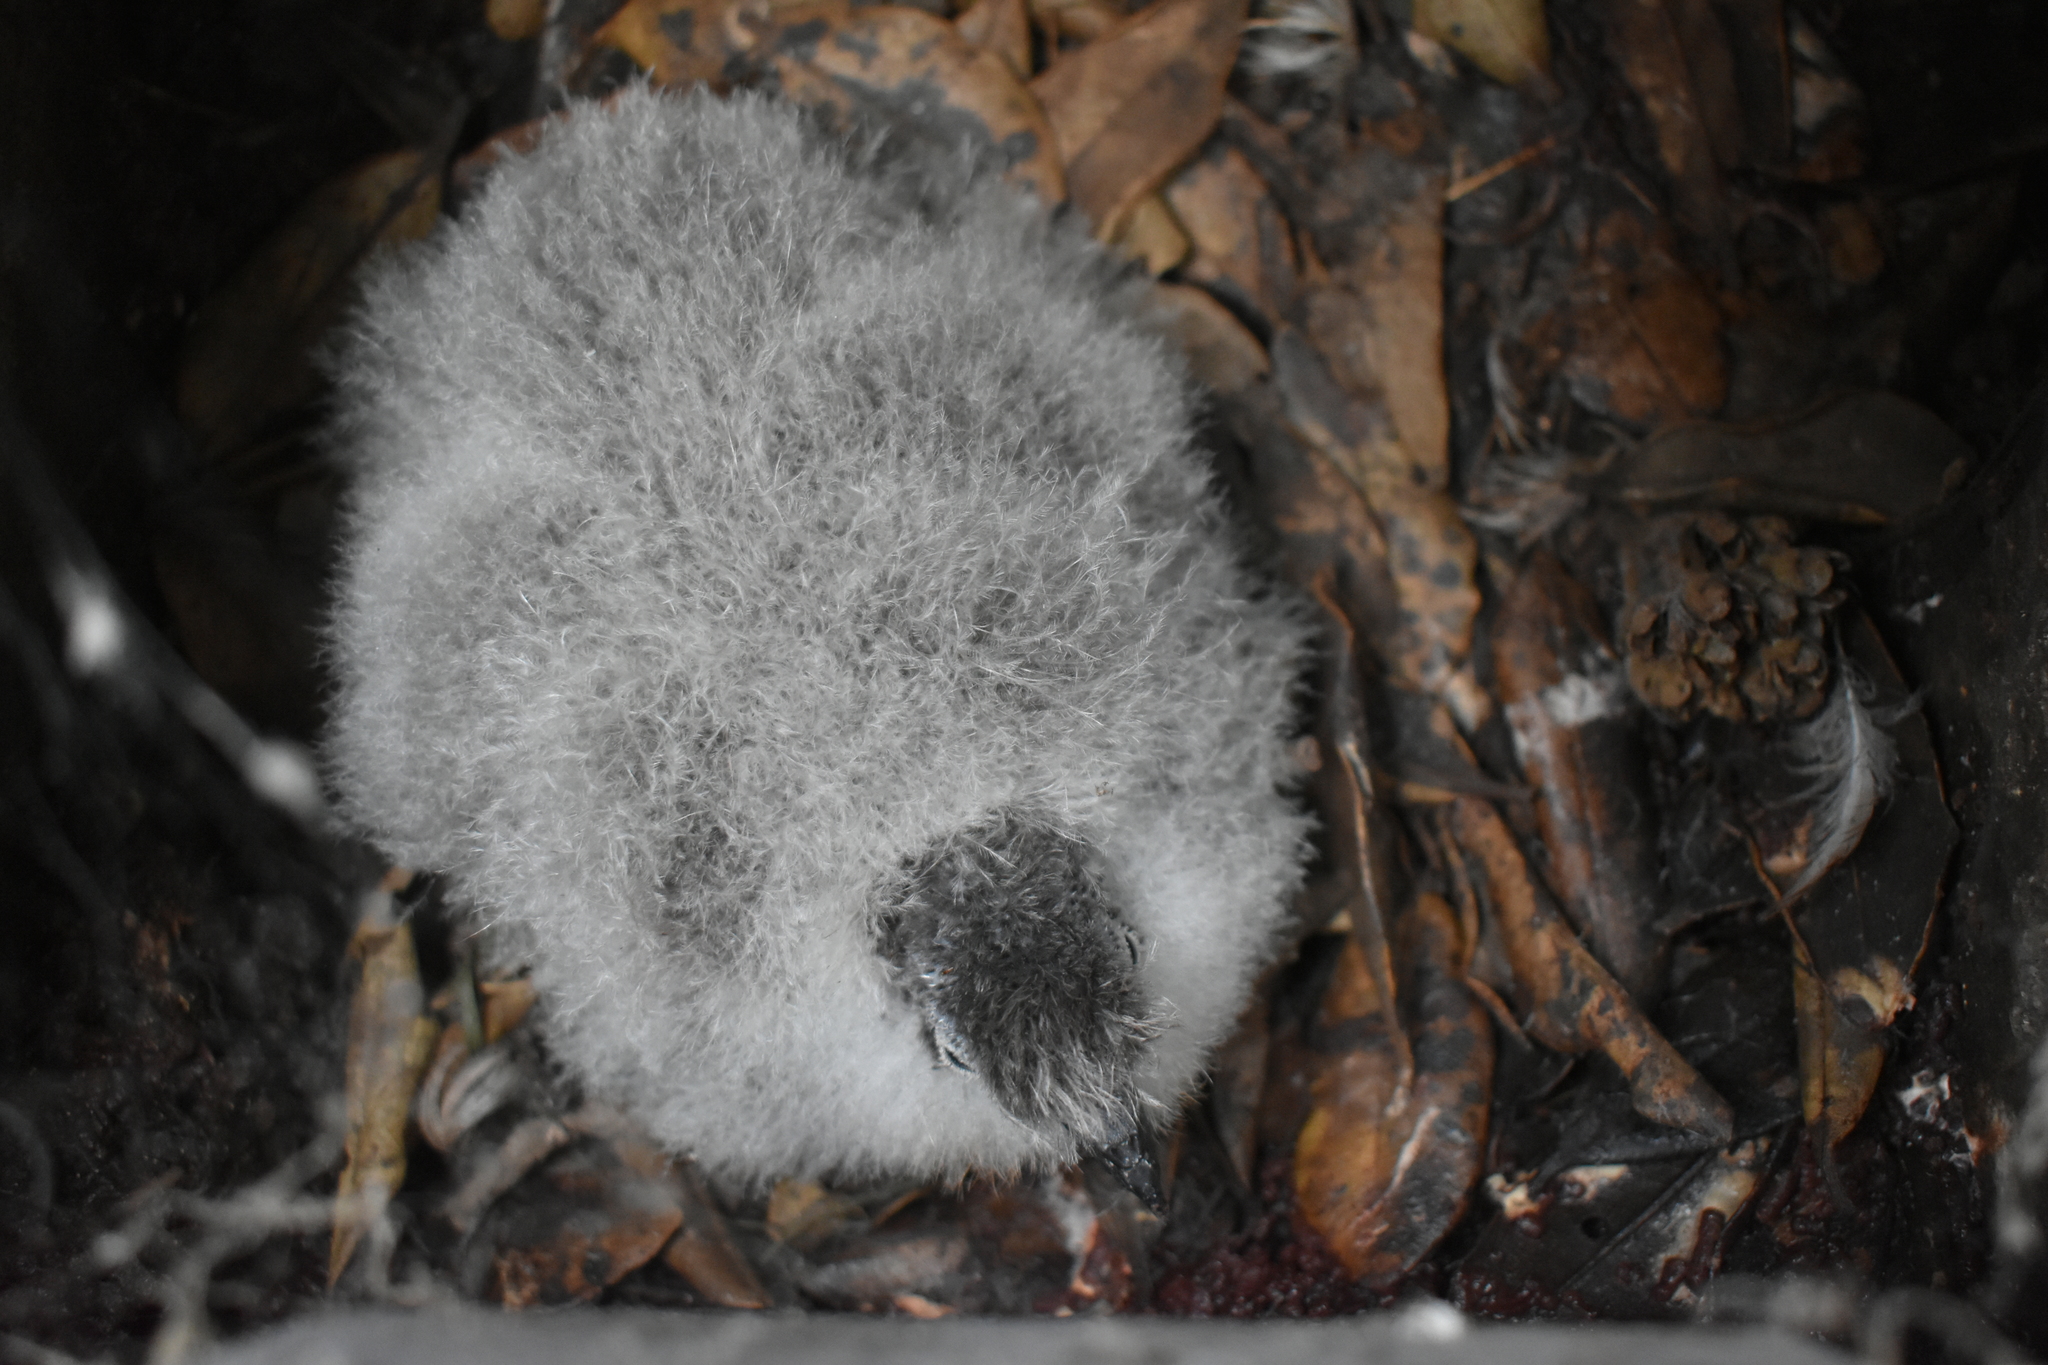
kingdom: Animalia
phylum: Chordata
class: Aves
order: Procellariiformes
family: Pelecanoididae
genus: Pelecanoides
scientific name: Pelecanoides urinatrix
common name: Common diving-petrel
